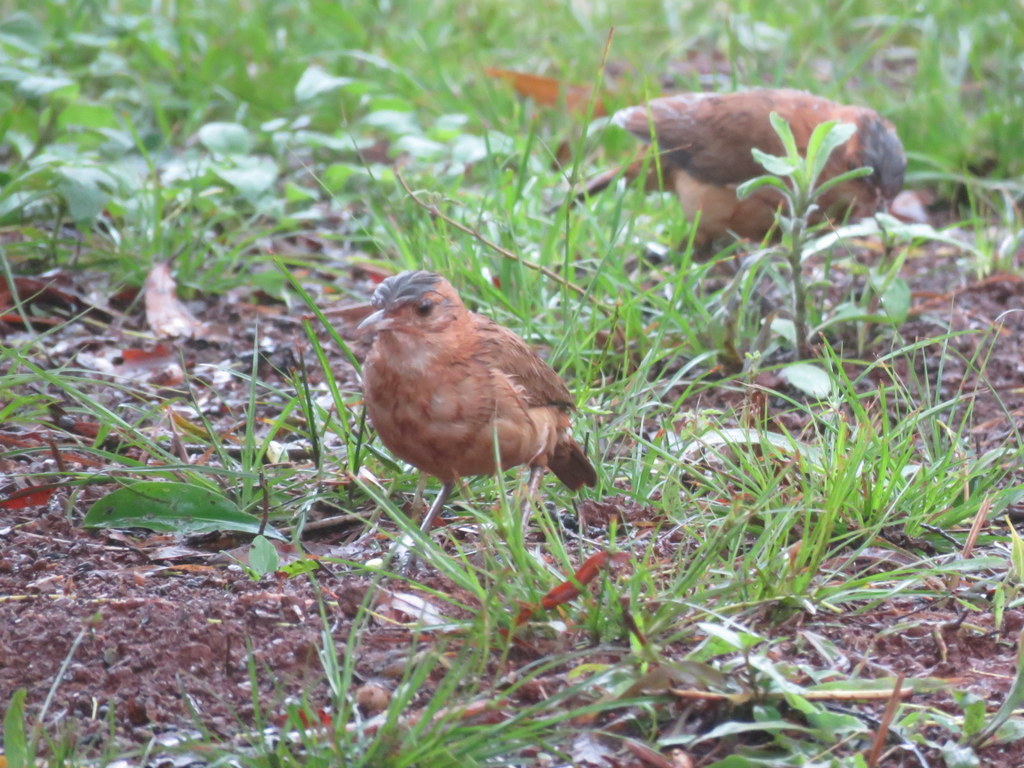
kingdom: Animalia
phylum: Chordata
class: Aves
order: Passeriformes
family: Furnariidae
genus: Furnarius
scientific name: Furnarius rufus
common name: Rufous hornero
